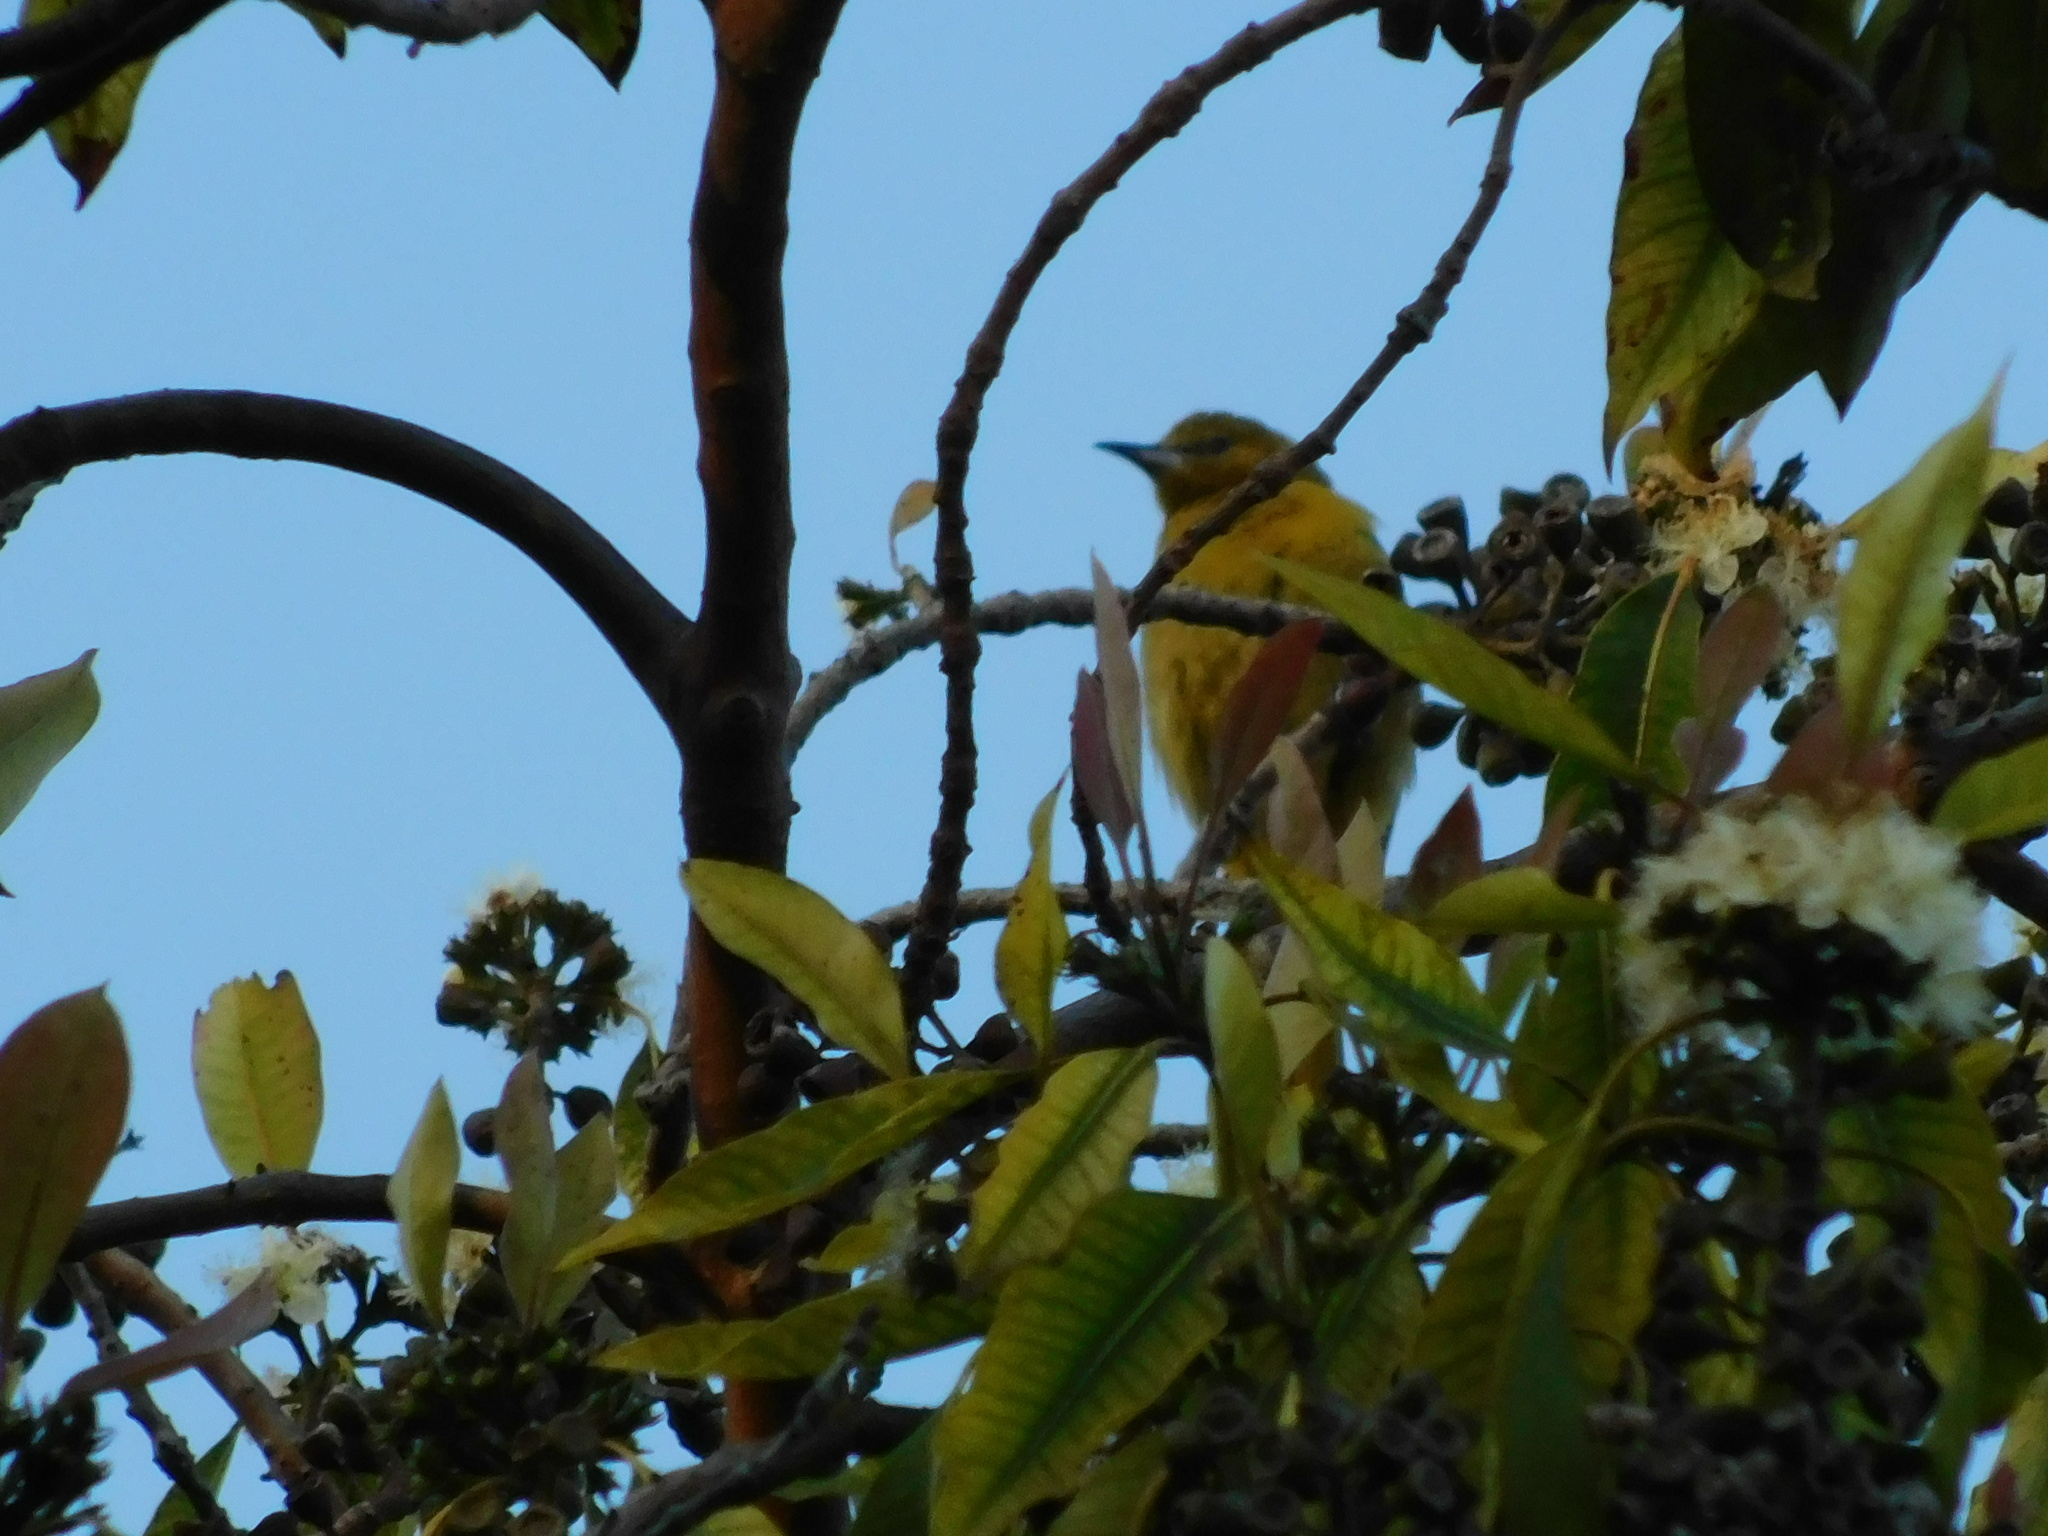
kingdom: Animalia
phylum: Chordata
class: Aves
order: Passeriformes
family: Icteridae
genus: Icterus
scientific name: Icterus cucullatus
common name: Hooded oriole
